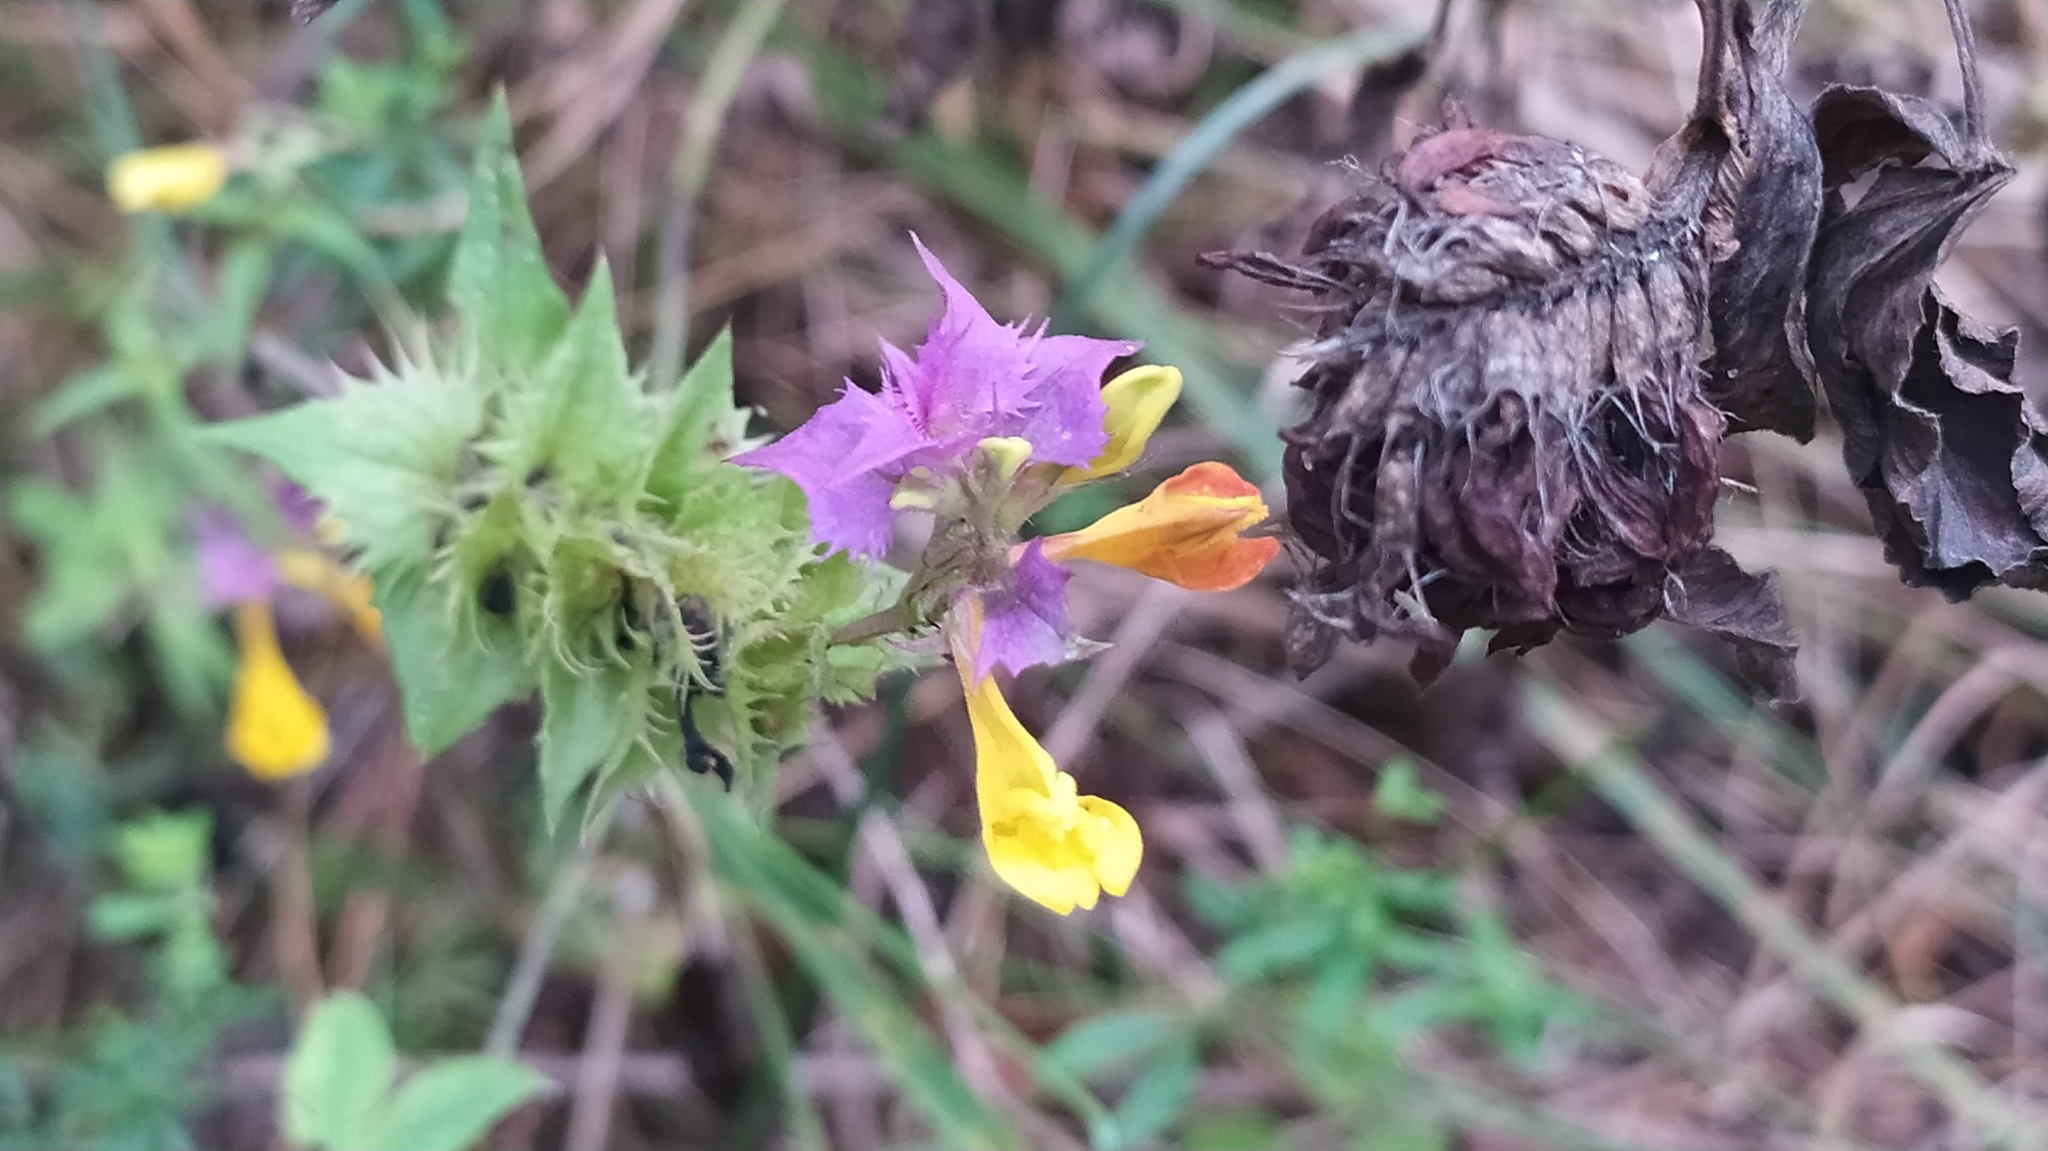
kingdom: Plantae
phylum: Tracheophyta
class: Magnoliopsida
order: Lamiales
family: Orobanchaceae
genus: Melampyrum
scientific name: Melampyrum nemorosum
